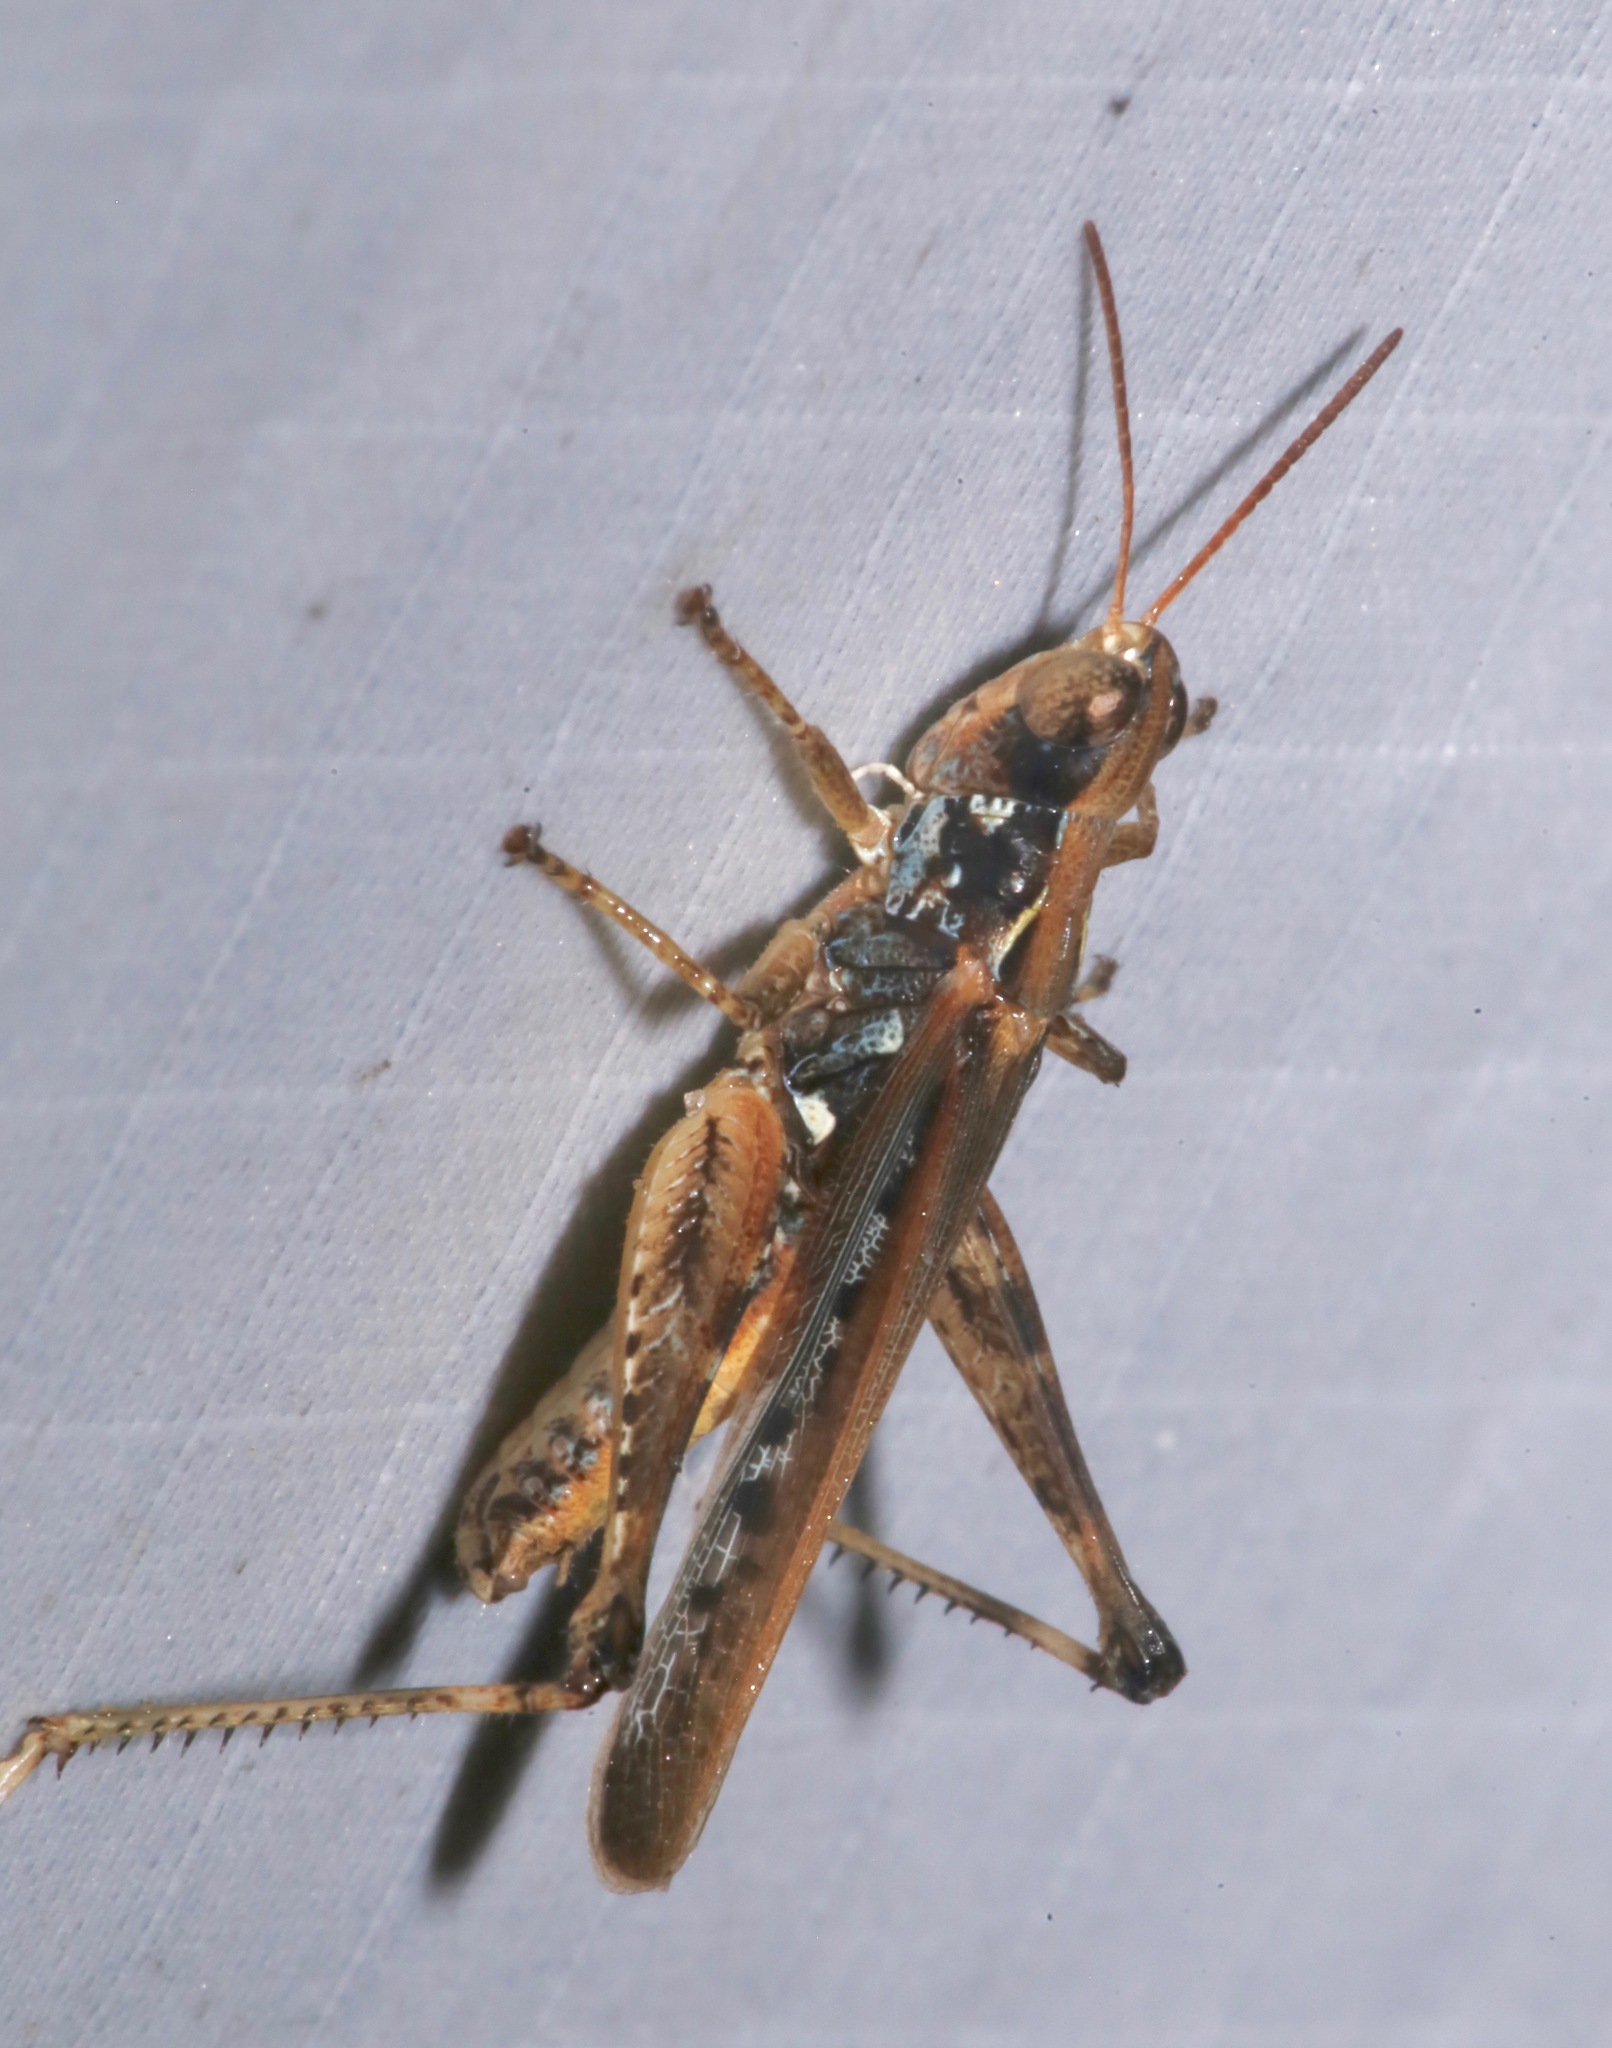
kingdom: Animalia
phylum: Arthropoda
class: Insecta
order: Orthoptera
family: Acrididae
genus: Orphulella
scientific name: Orphulella pelidna
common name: Spotted-wing grasshopper
